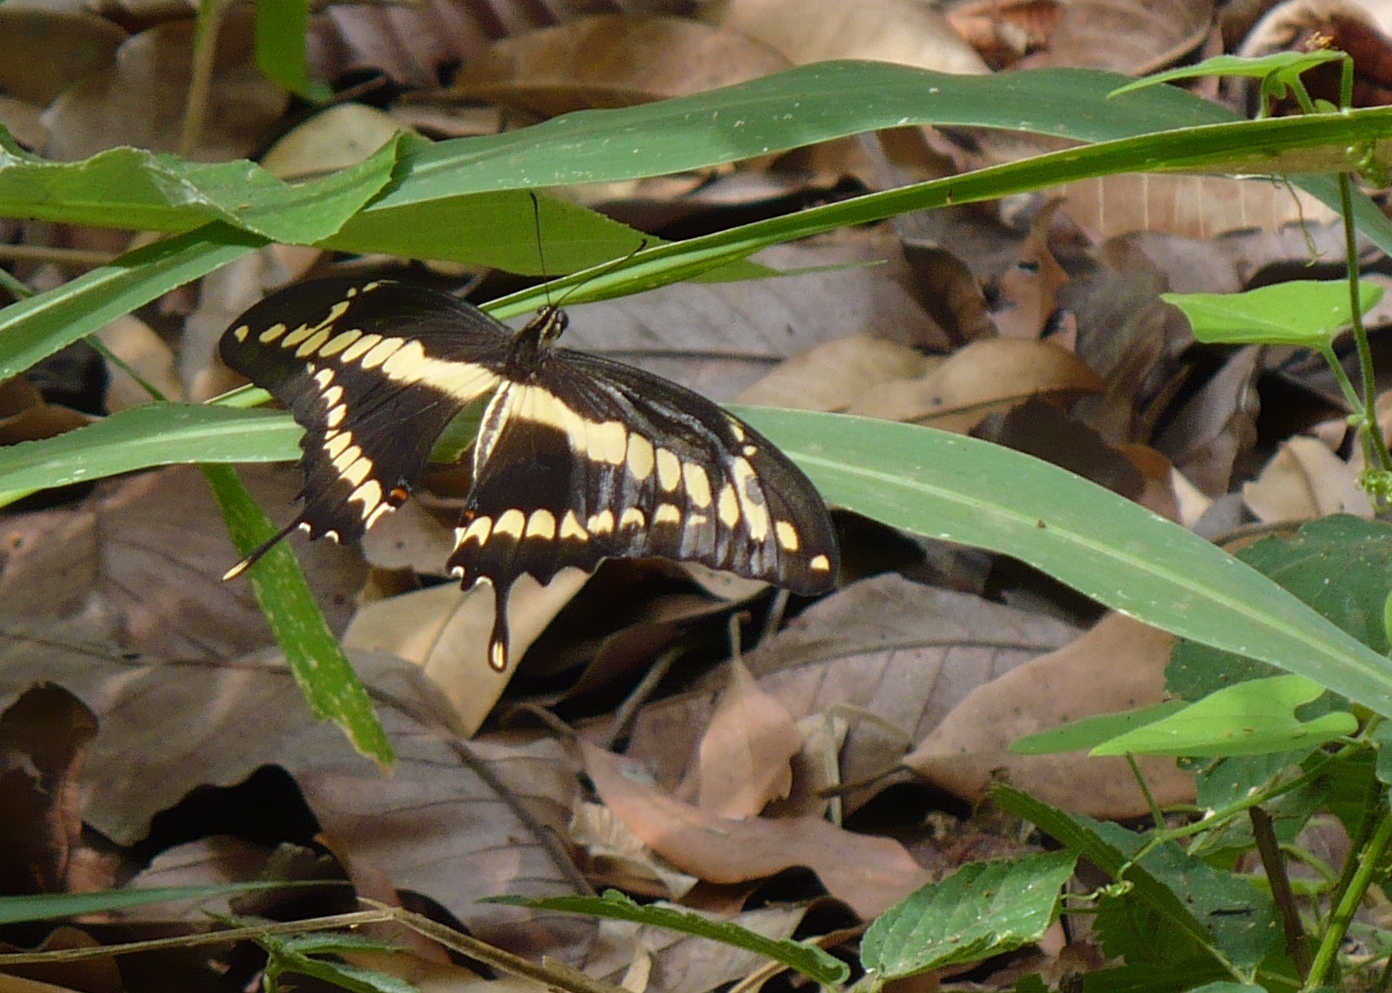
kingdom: Animalia
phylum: Arthropoda
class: Insecta
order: Lepidoptera
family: Papilionidae
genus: Papilio
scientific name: Papilio thoas
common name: King swallowtail
